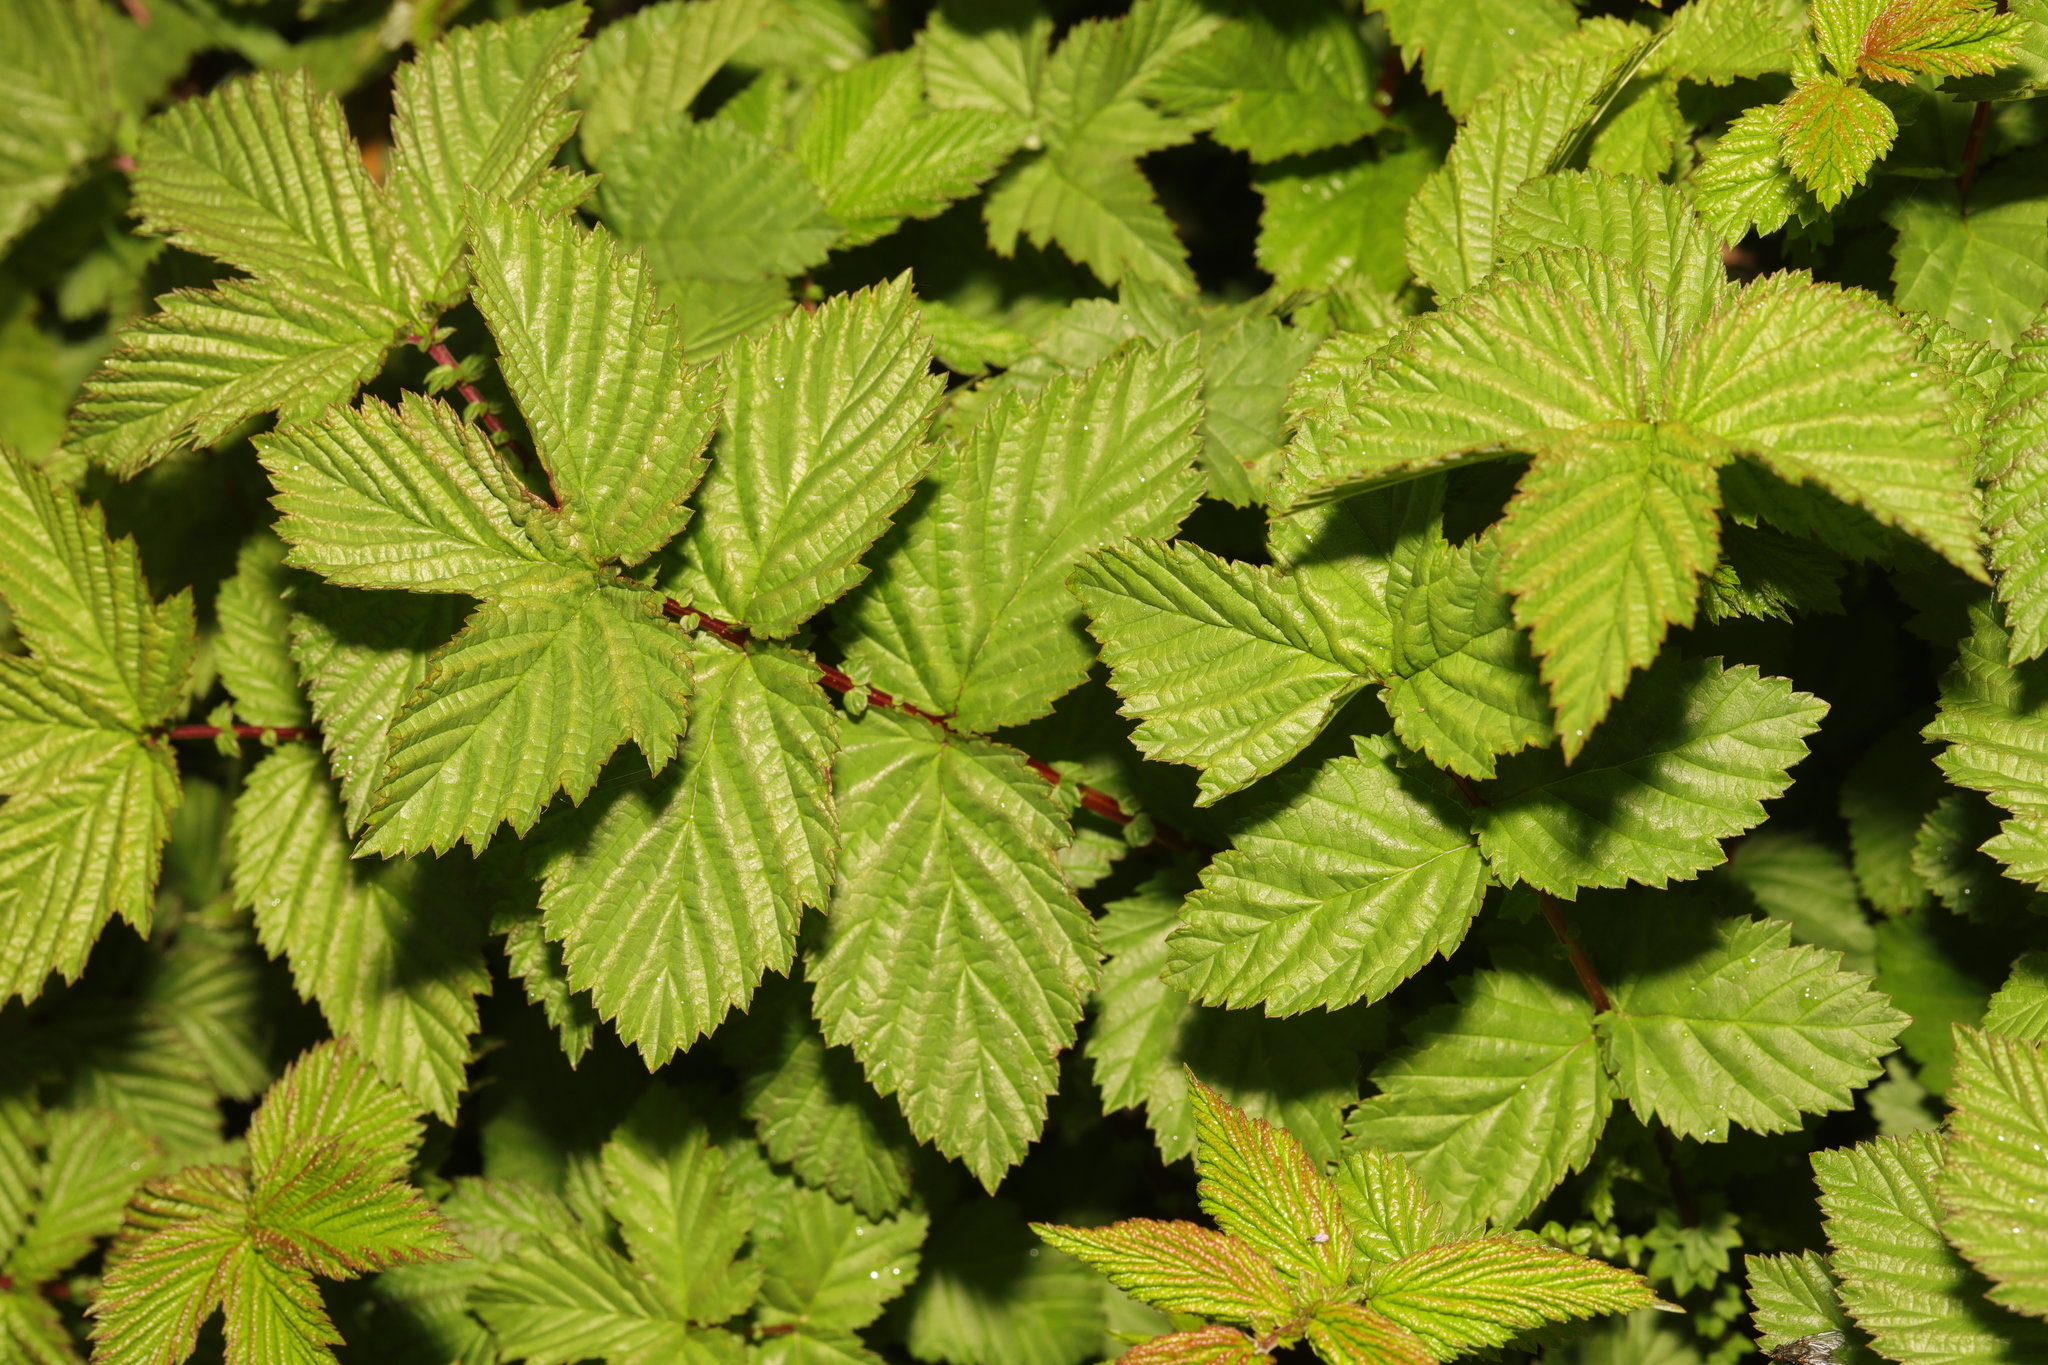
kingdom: Plantae
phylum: Tracheophyta
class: Magnoliopsida
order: Rosales
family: Rosaceae
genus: Filipendula
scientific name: Filipendula ulmaria
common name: Meadowsweet
